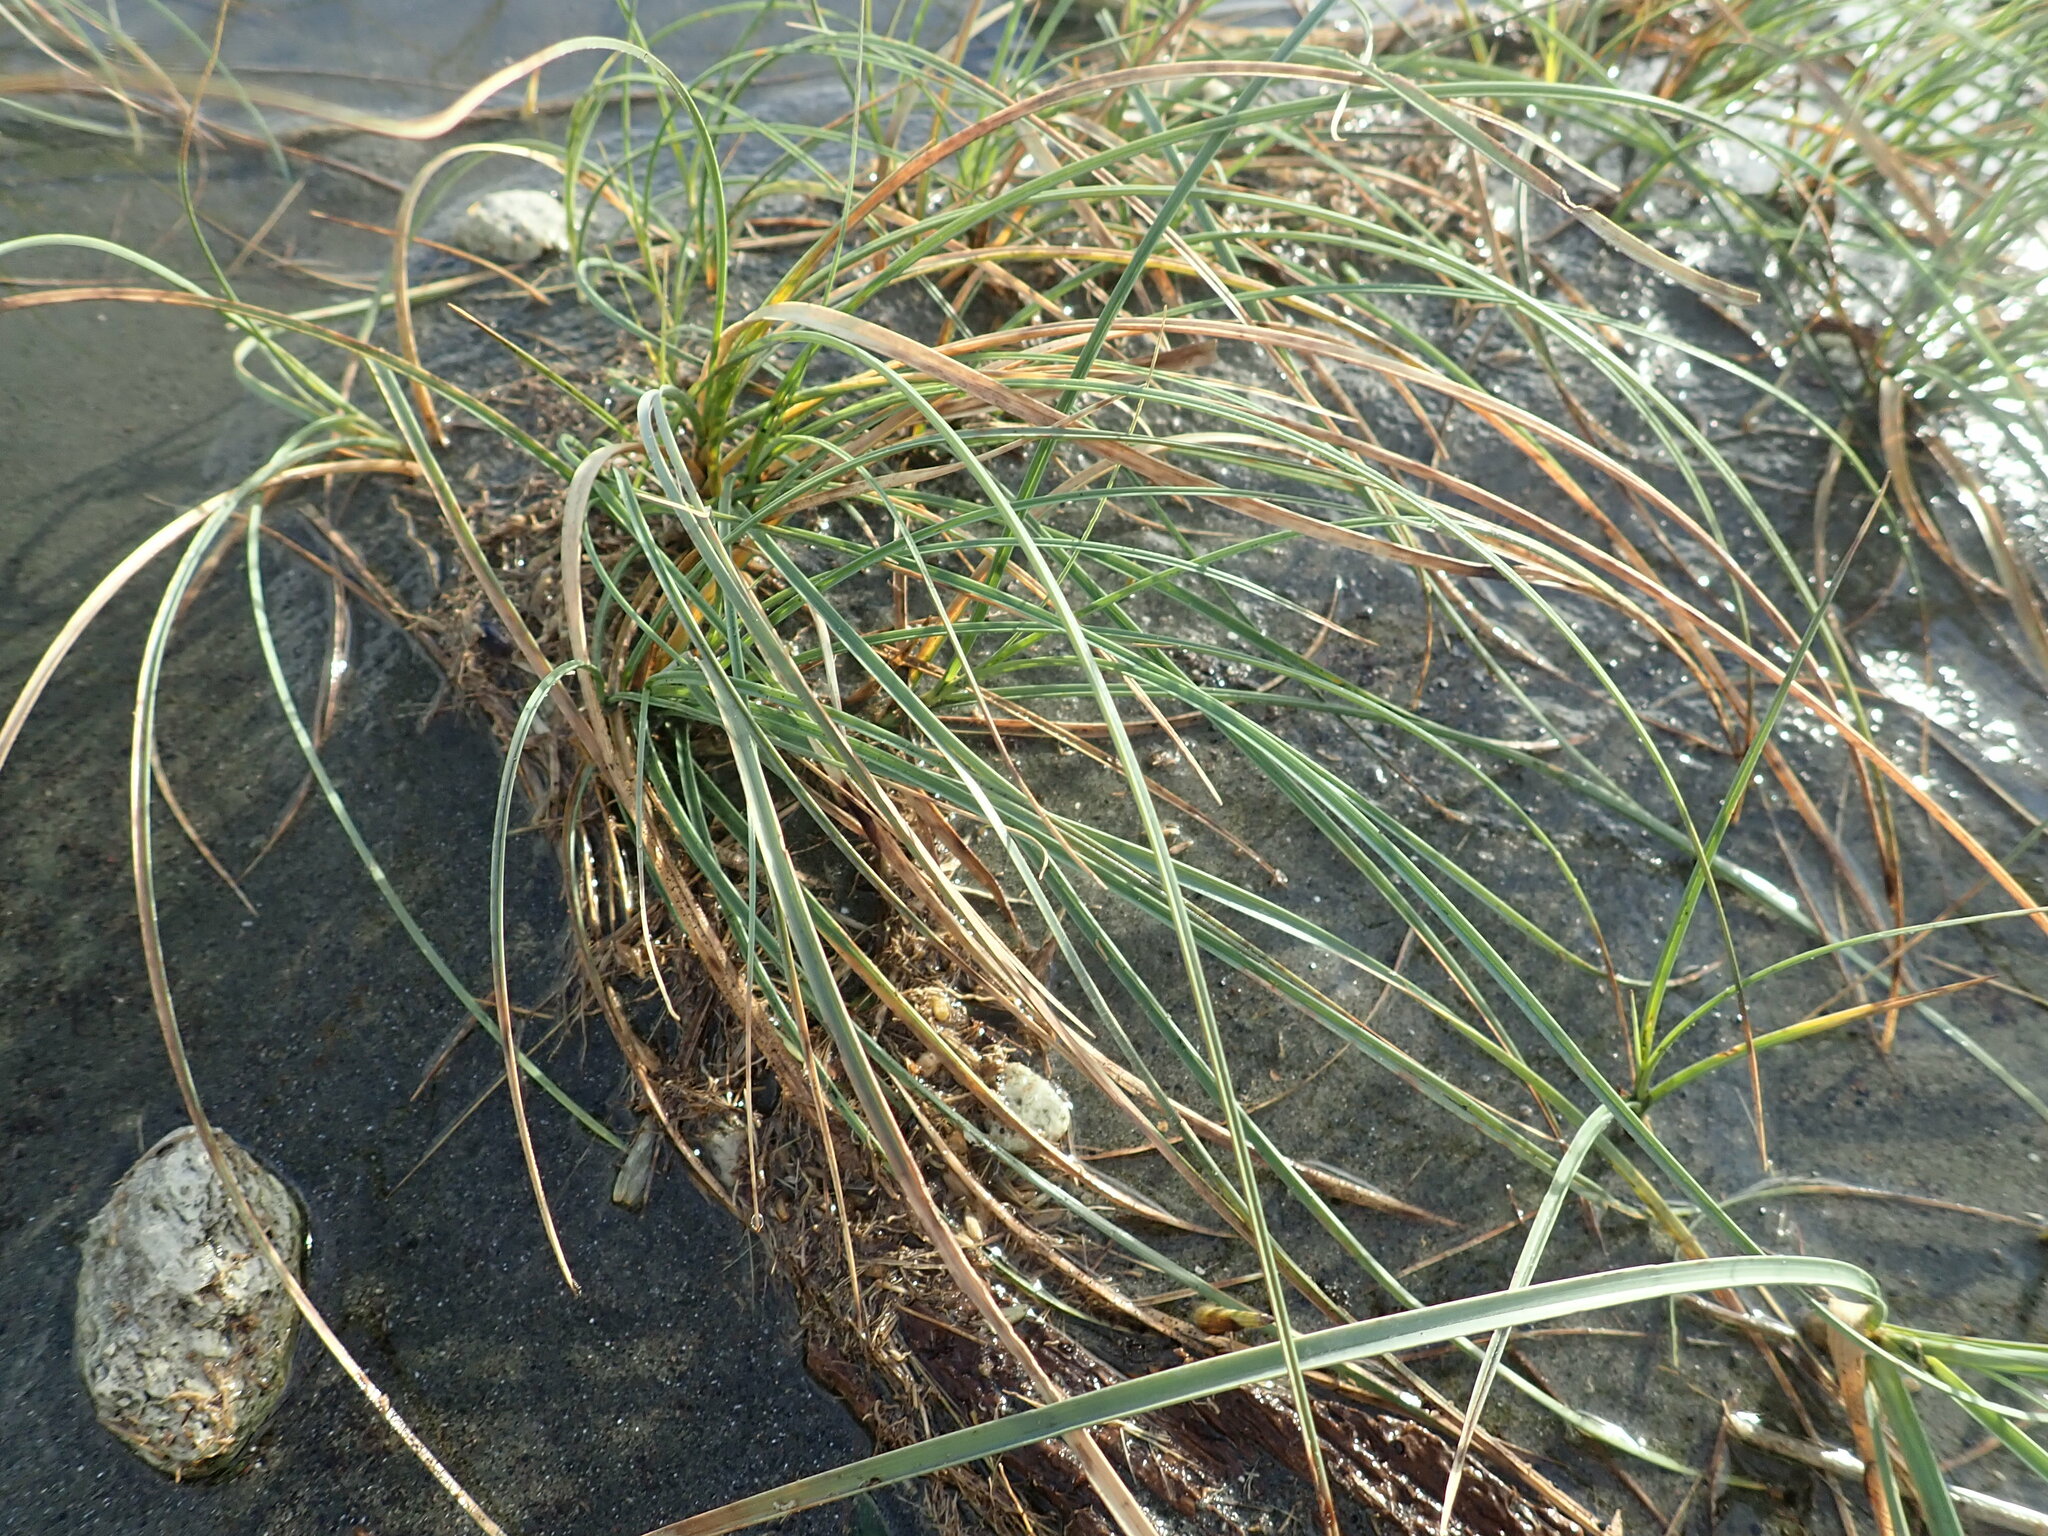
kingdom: Plantae
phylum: Tracheophyta
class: Liliopsida
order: Poales
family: Cyperaceae
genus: Carex
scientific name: Carex pumila
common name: Dwarf sedge
